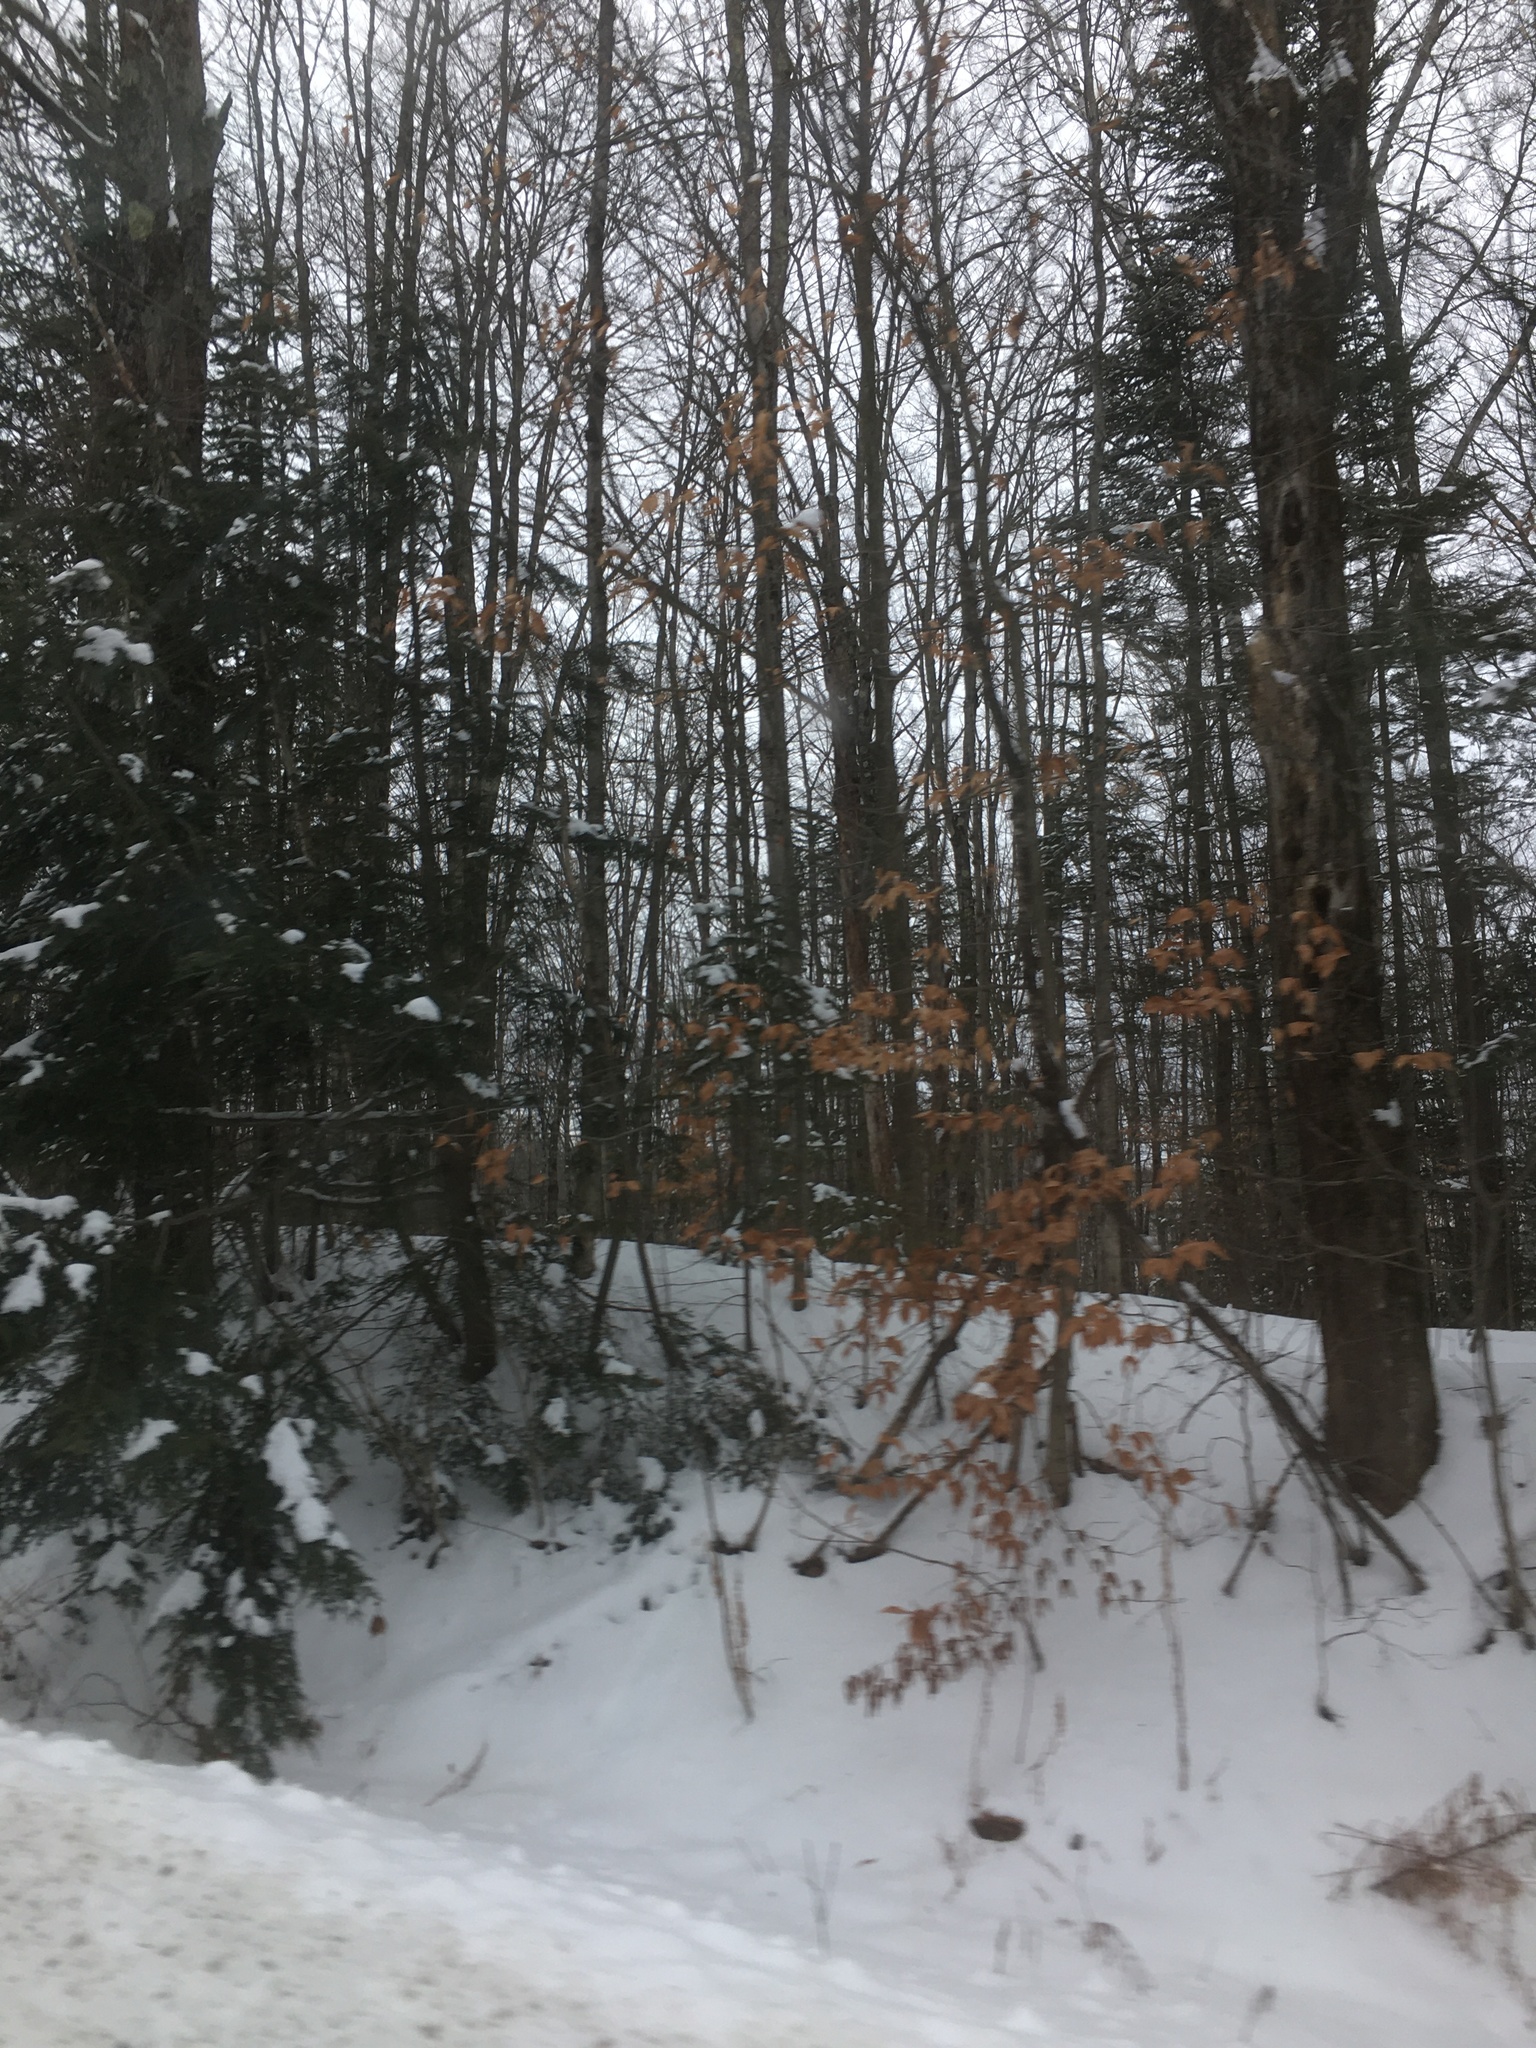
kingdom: Plantae
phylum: Tracheophyta
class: Magnoliopsida
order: Fagales
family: Fagaceae
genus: Fagus
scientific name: Fagus grandifolia
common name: American beech
